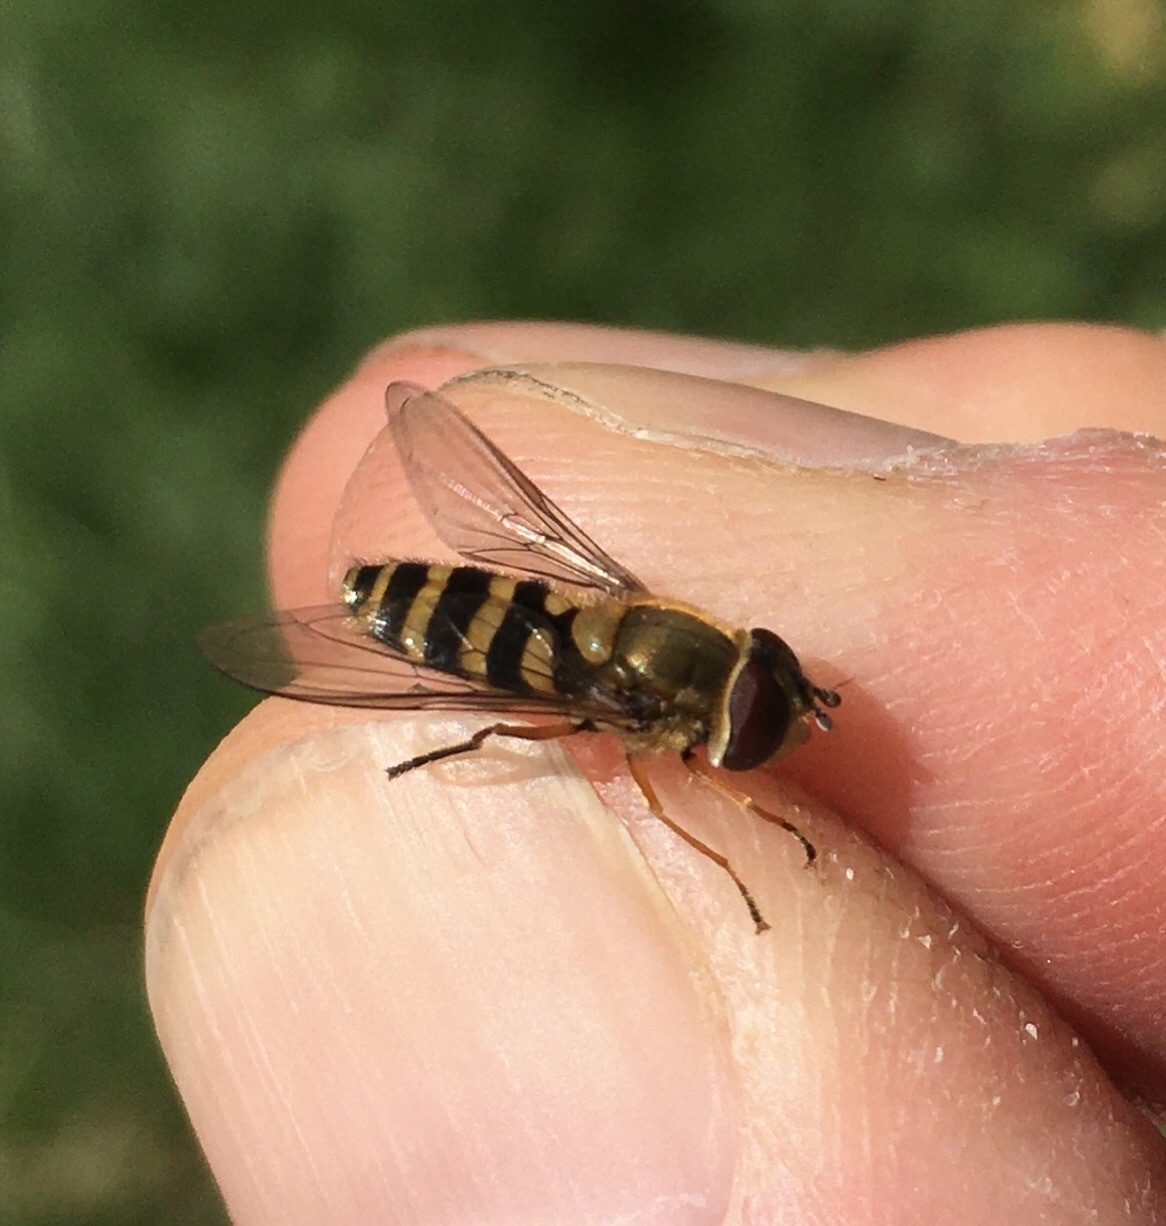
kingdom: Animalia
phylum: Arthropoda
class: Insecta
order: Diptera
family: Syrphidae
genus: Syrphus
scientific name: Syrphus ribesii
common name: Common flower fly
